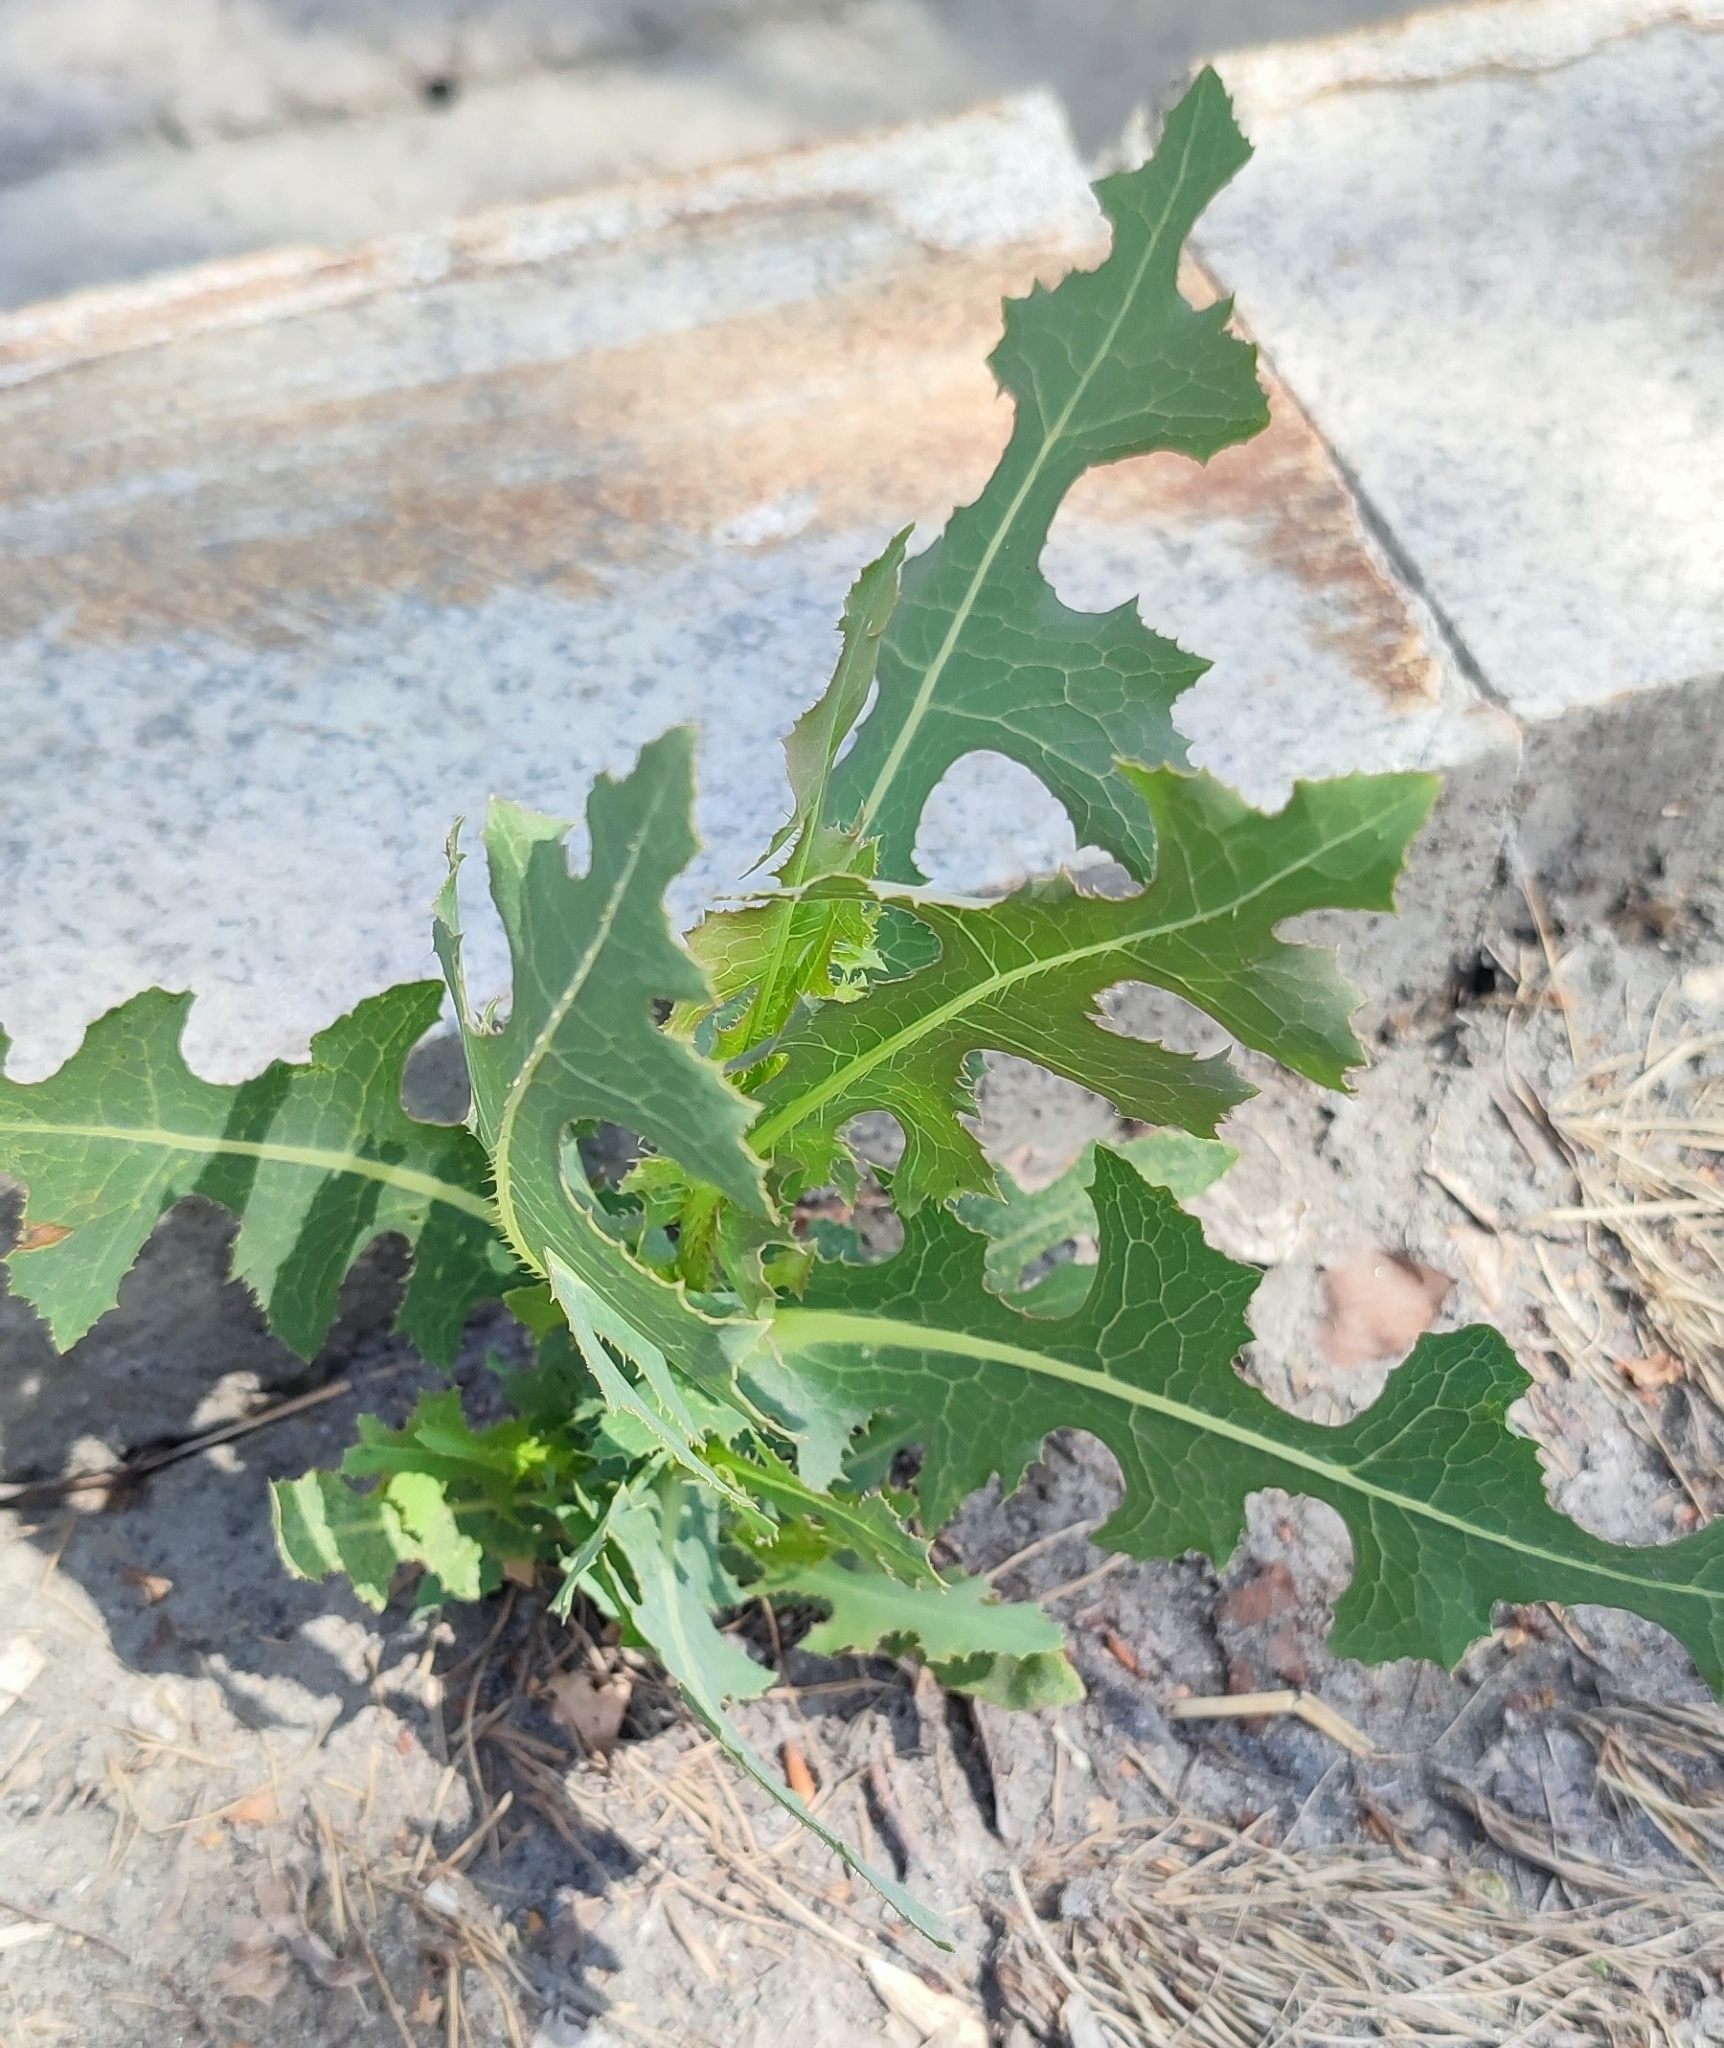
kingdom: Plantae
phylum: Tracheophyta
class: Magnoliopsida
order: Asterales
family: Asteraceae
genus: Lactuca
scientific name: Lactuca serriola
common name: Prickly lettuce
